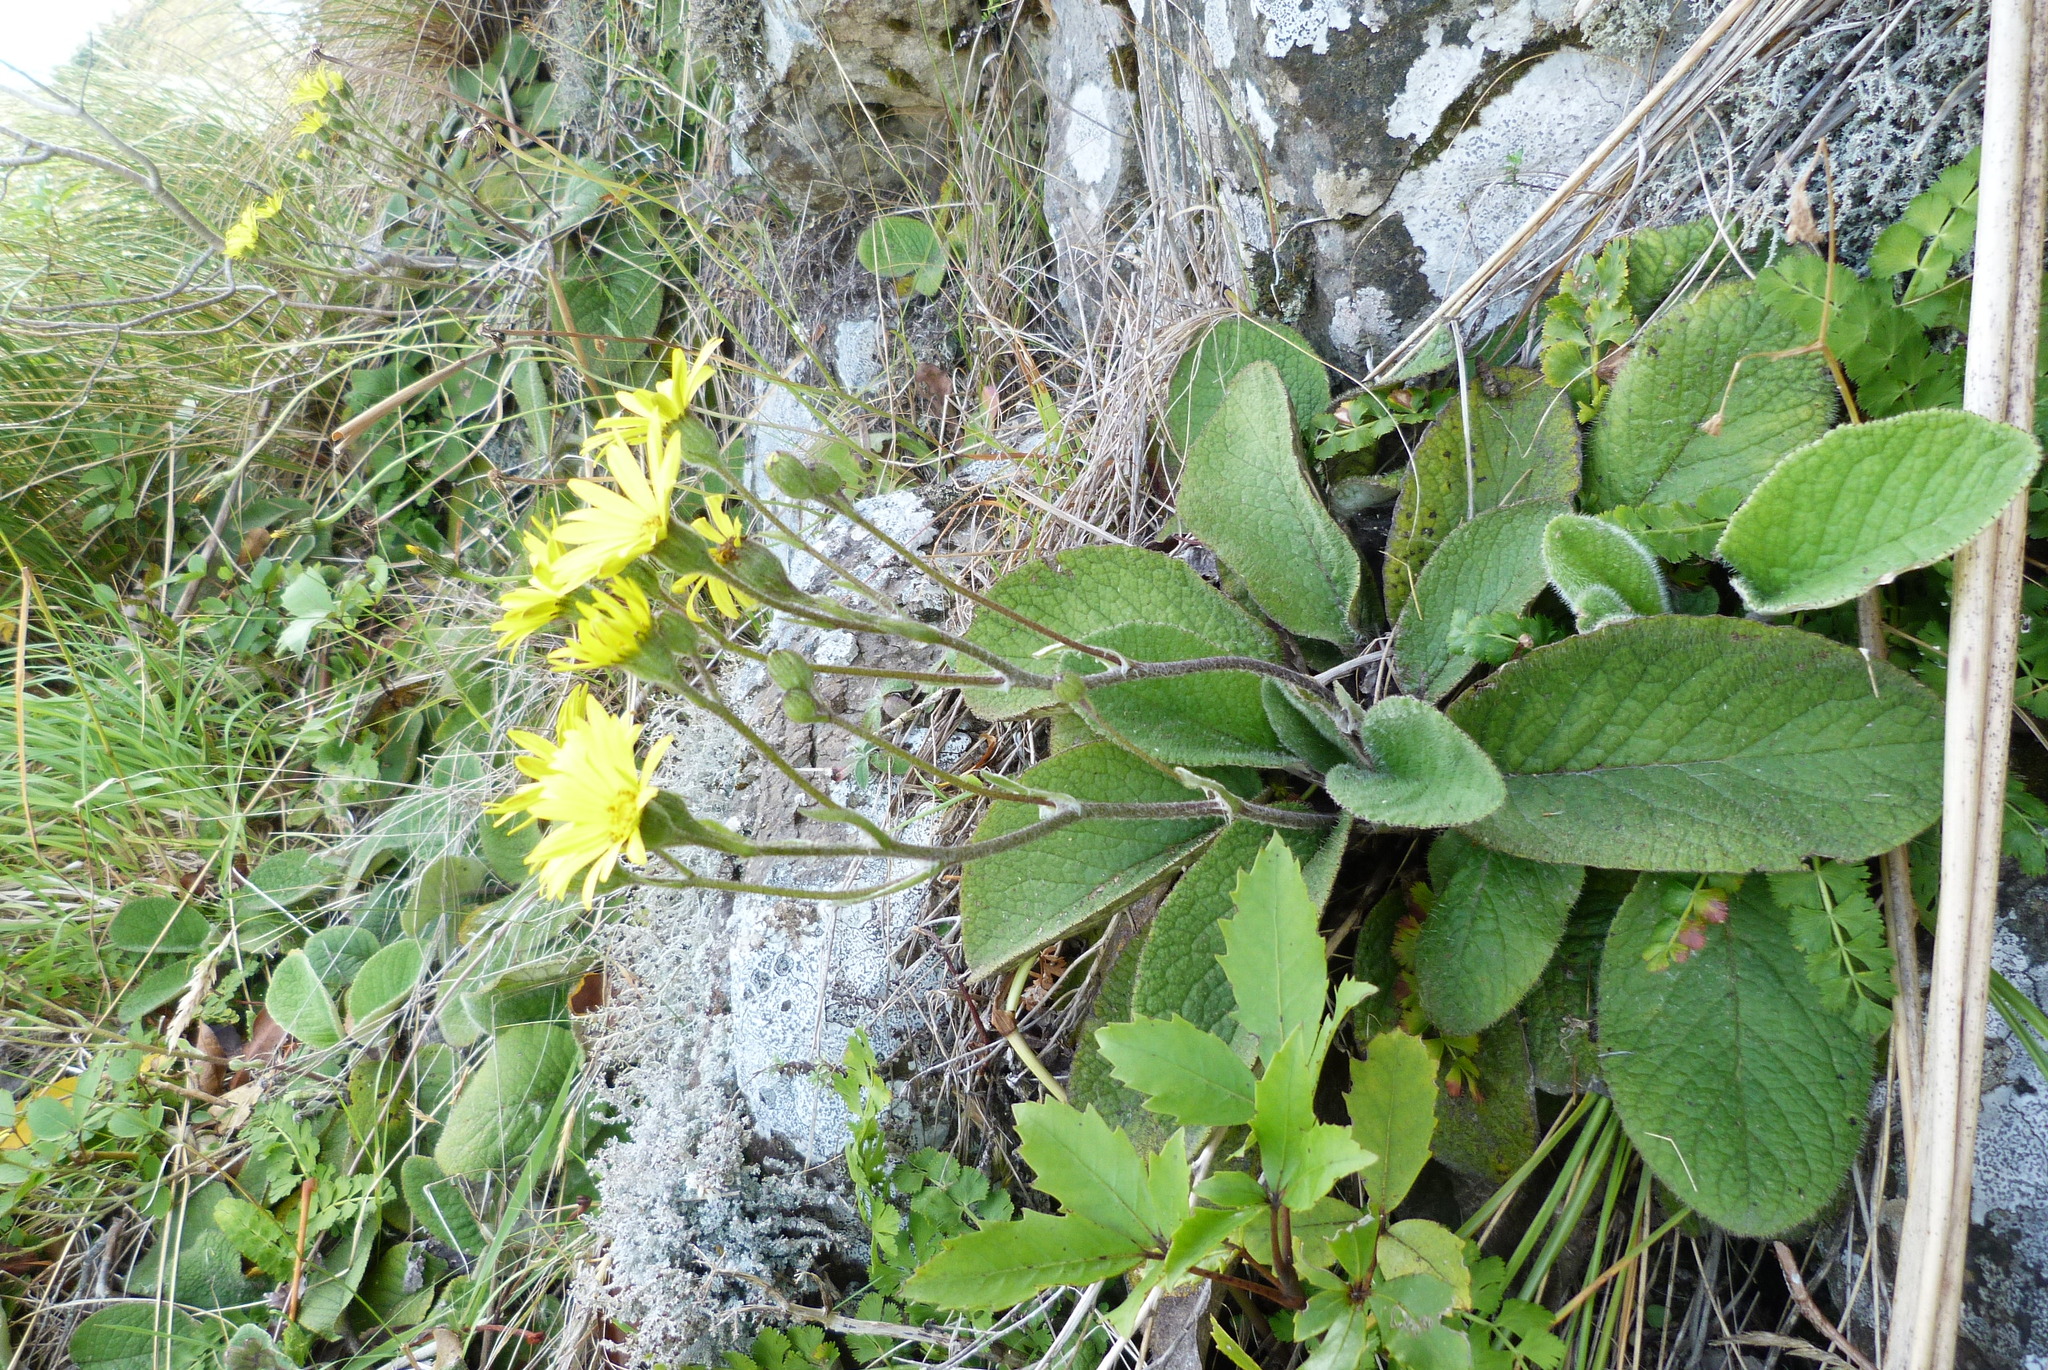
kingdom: Plantae
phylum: Tracheophyta
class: Magnoliopsida
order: Asterales
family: Asteraceae
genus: Brachyglottis
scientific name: Brachyglottis lagopus
